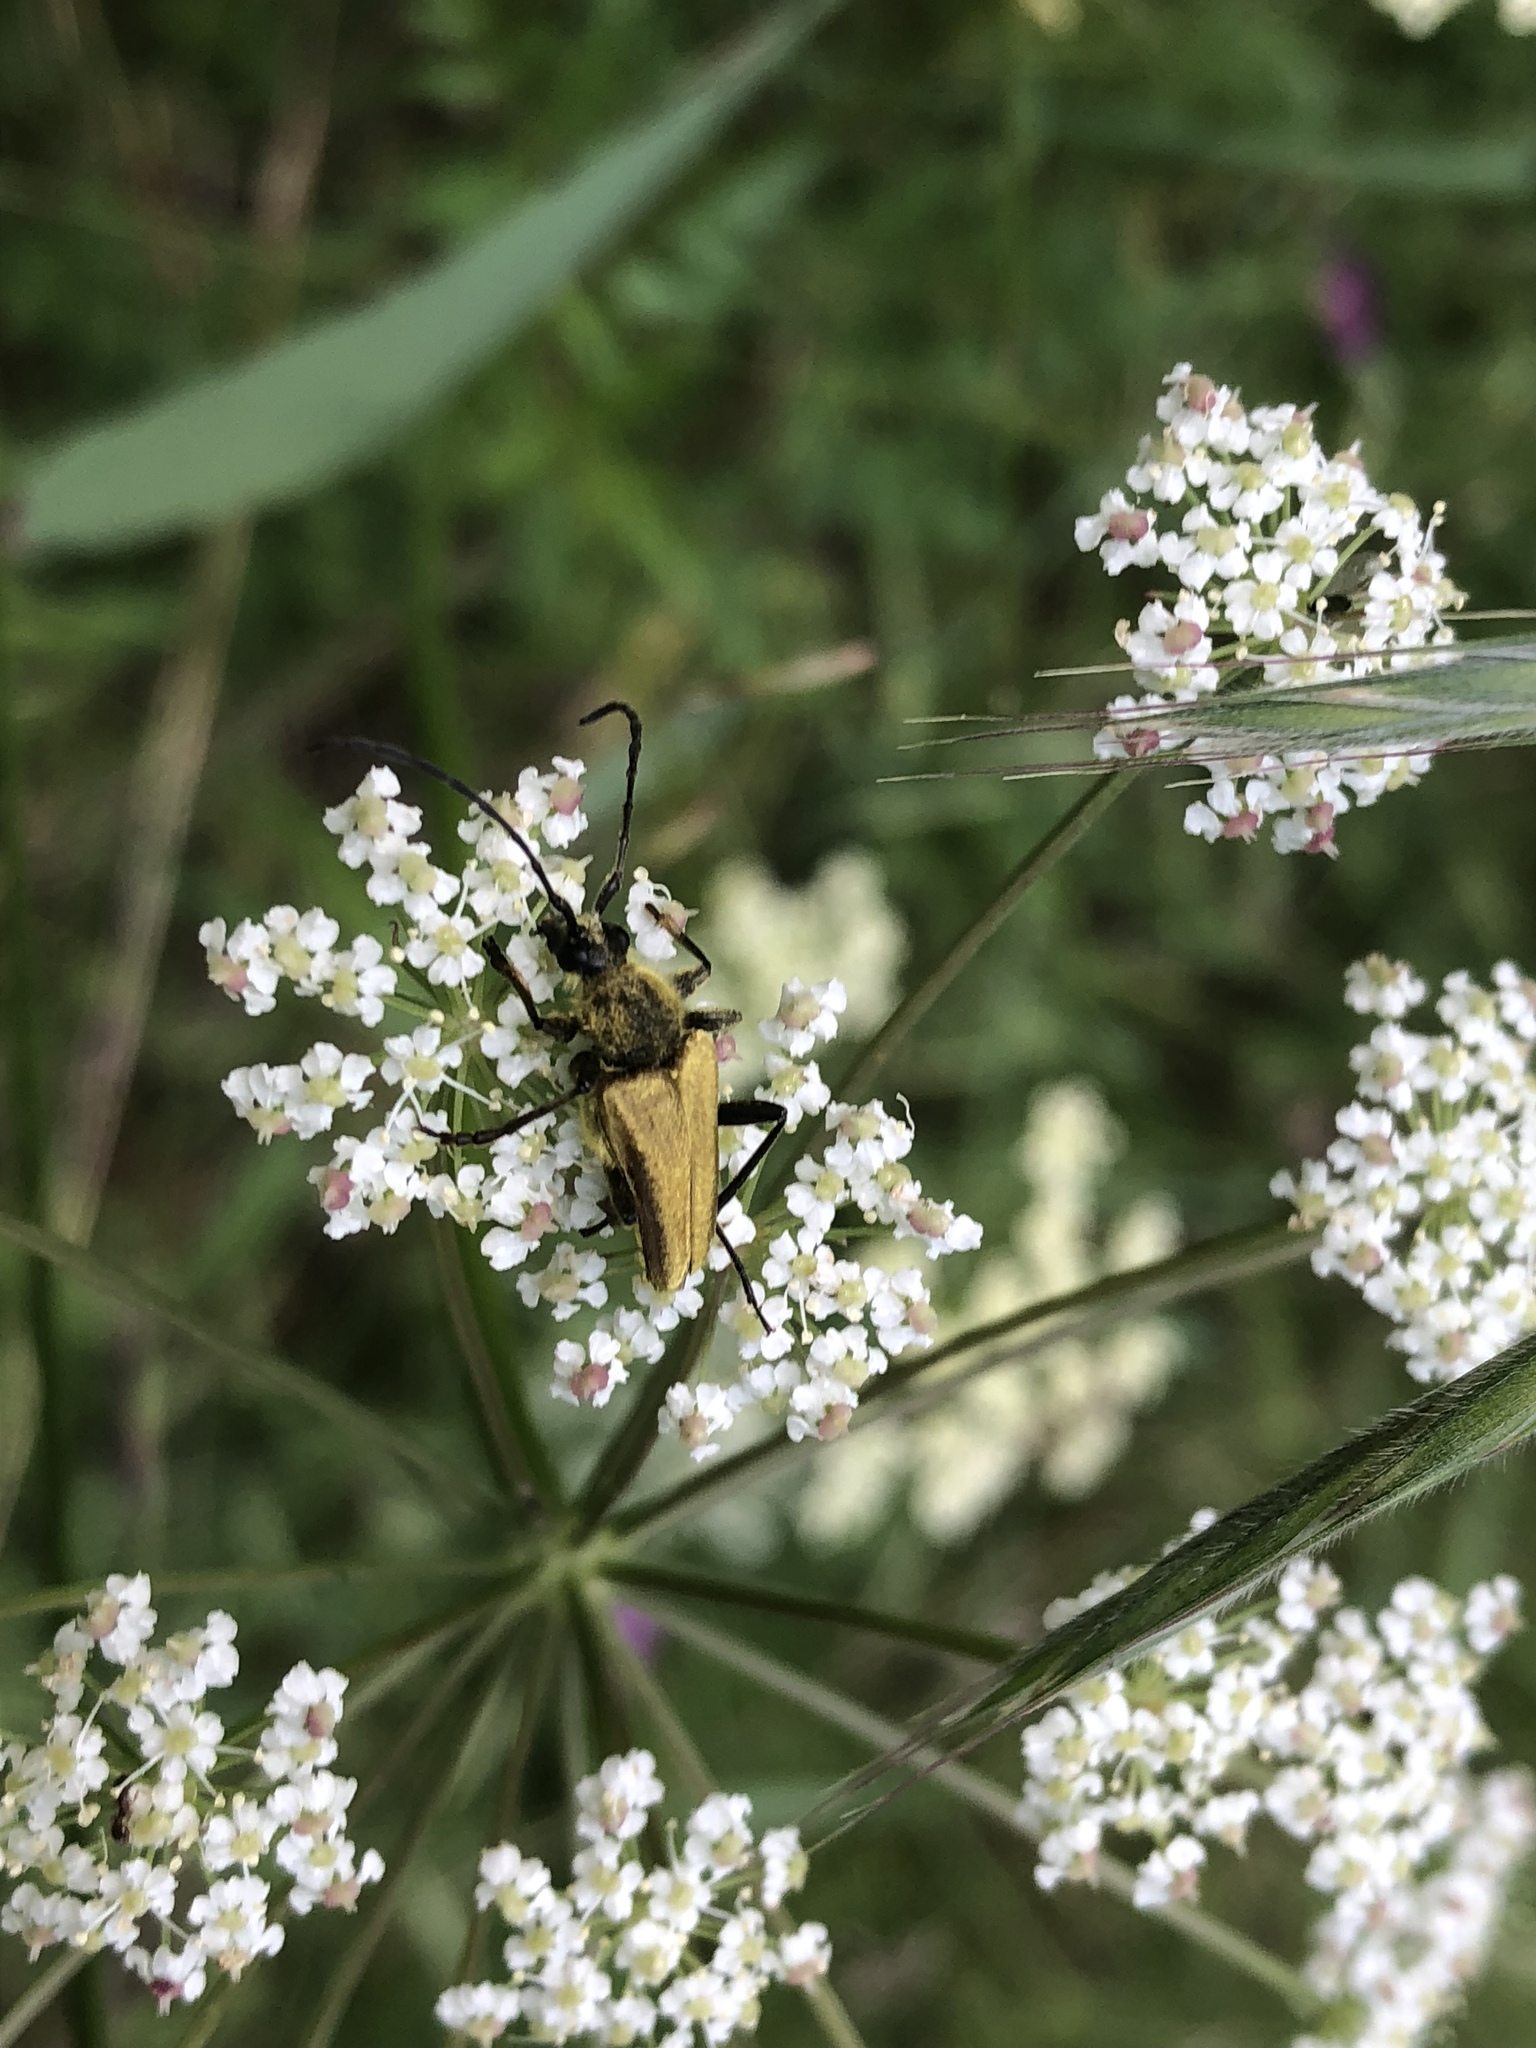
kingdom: Animalia
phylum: Arthropoda
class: Insecta
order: Coleoptera
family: Cerambycidae
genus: Cosmosalia
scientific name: Cosmosalia chrysocoma
